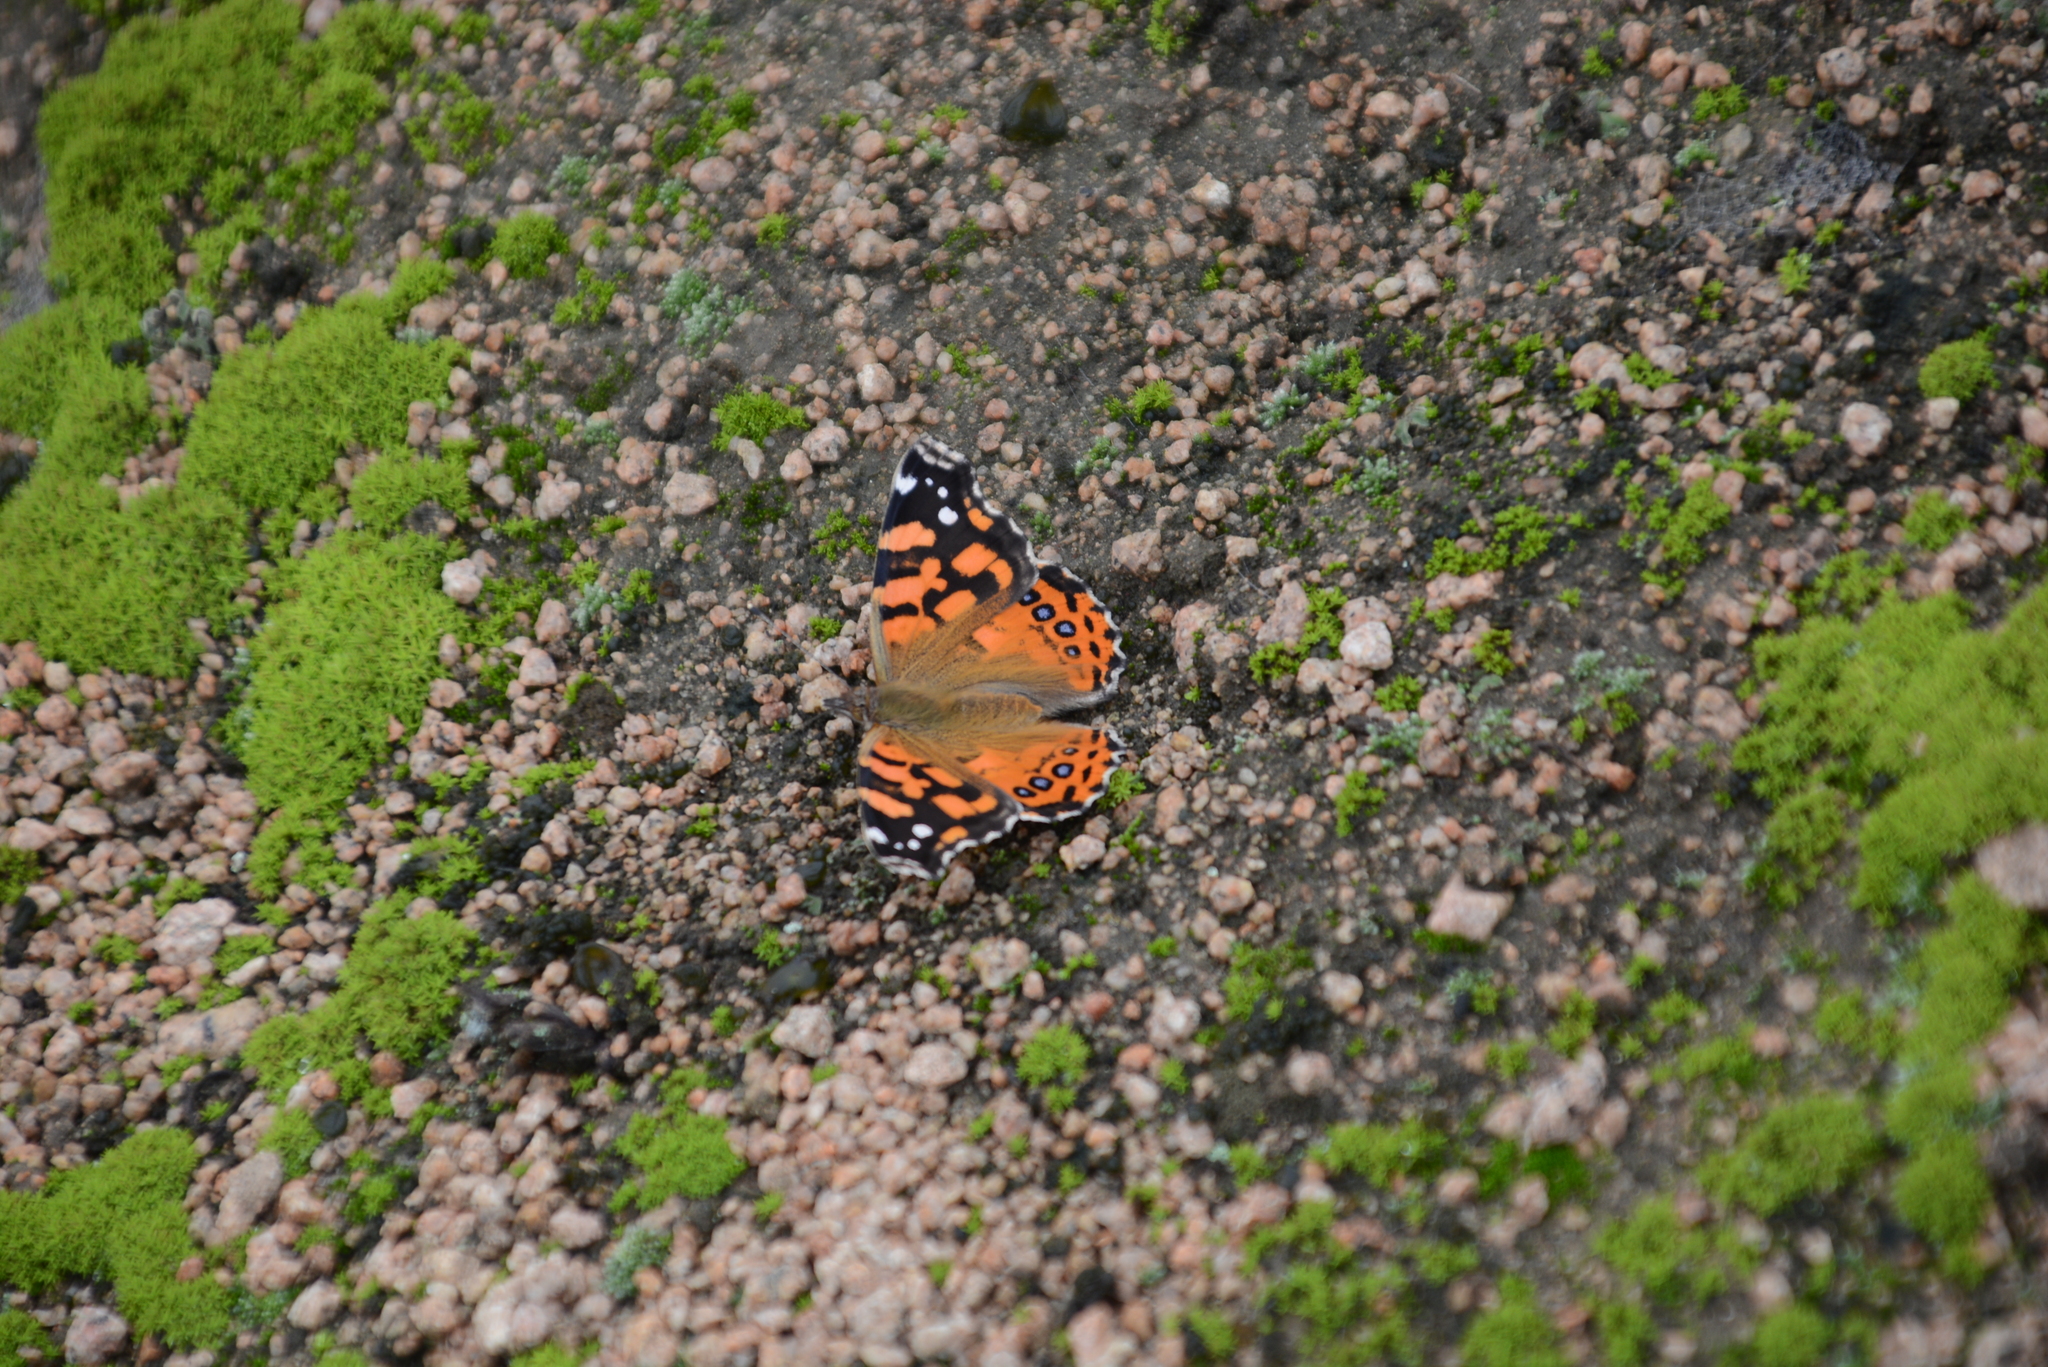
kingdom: Animalia
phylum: Arthropoda
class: Insecta
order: Lepidoptera
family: Nymphalidae
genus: Vanessa
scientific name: Vanessa carye
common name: Subtropical lady
